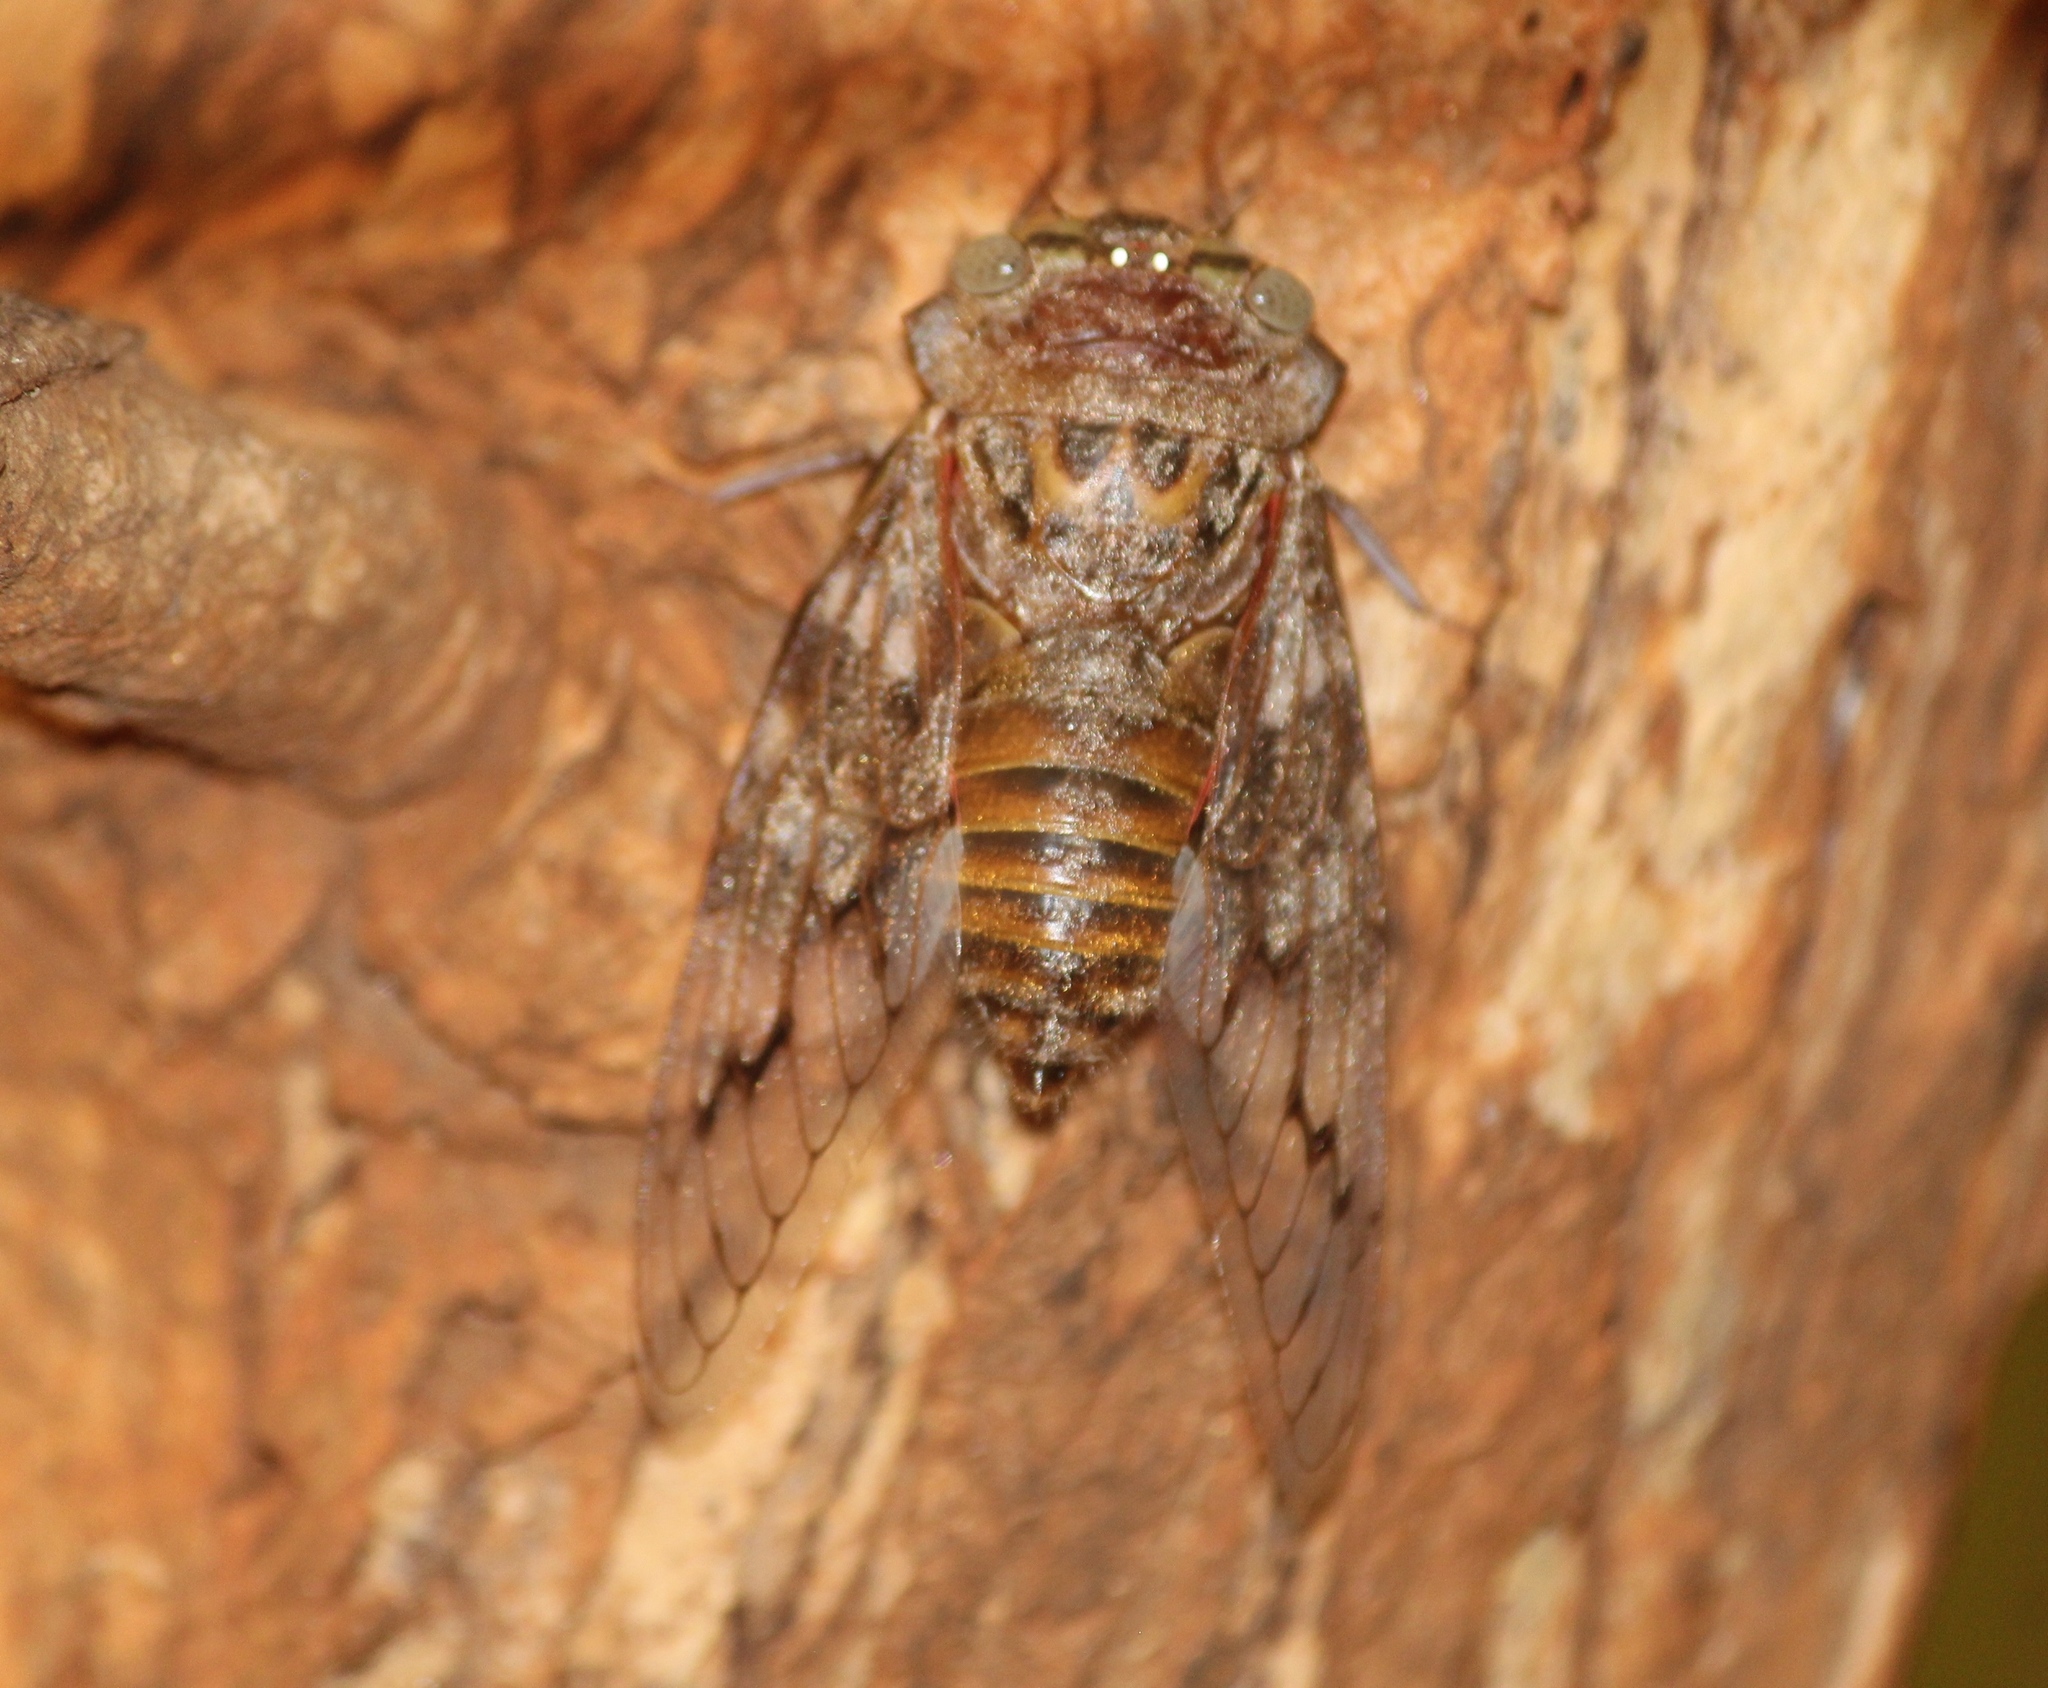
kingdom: Animalia
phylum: Arthropoda
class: Insecta
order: Hemiptera
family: Cicadidae
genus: Platypleura
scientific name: Platypleura octoguttata
